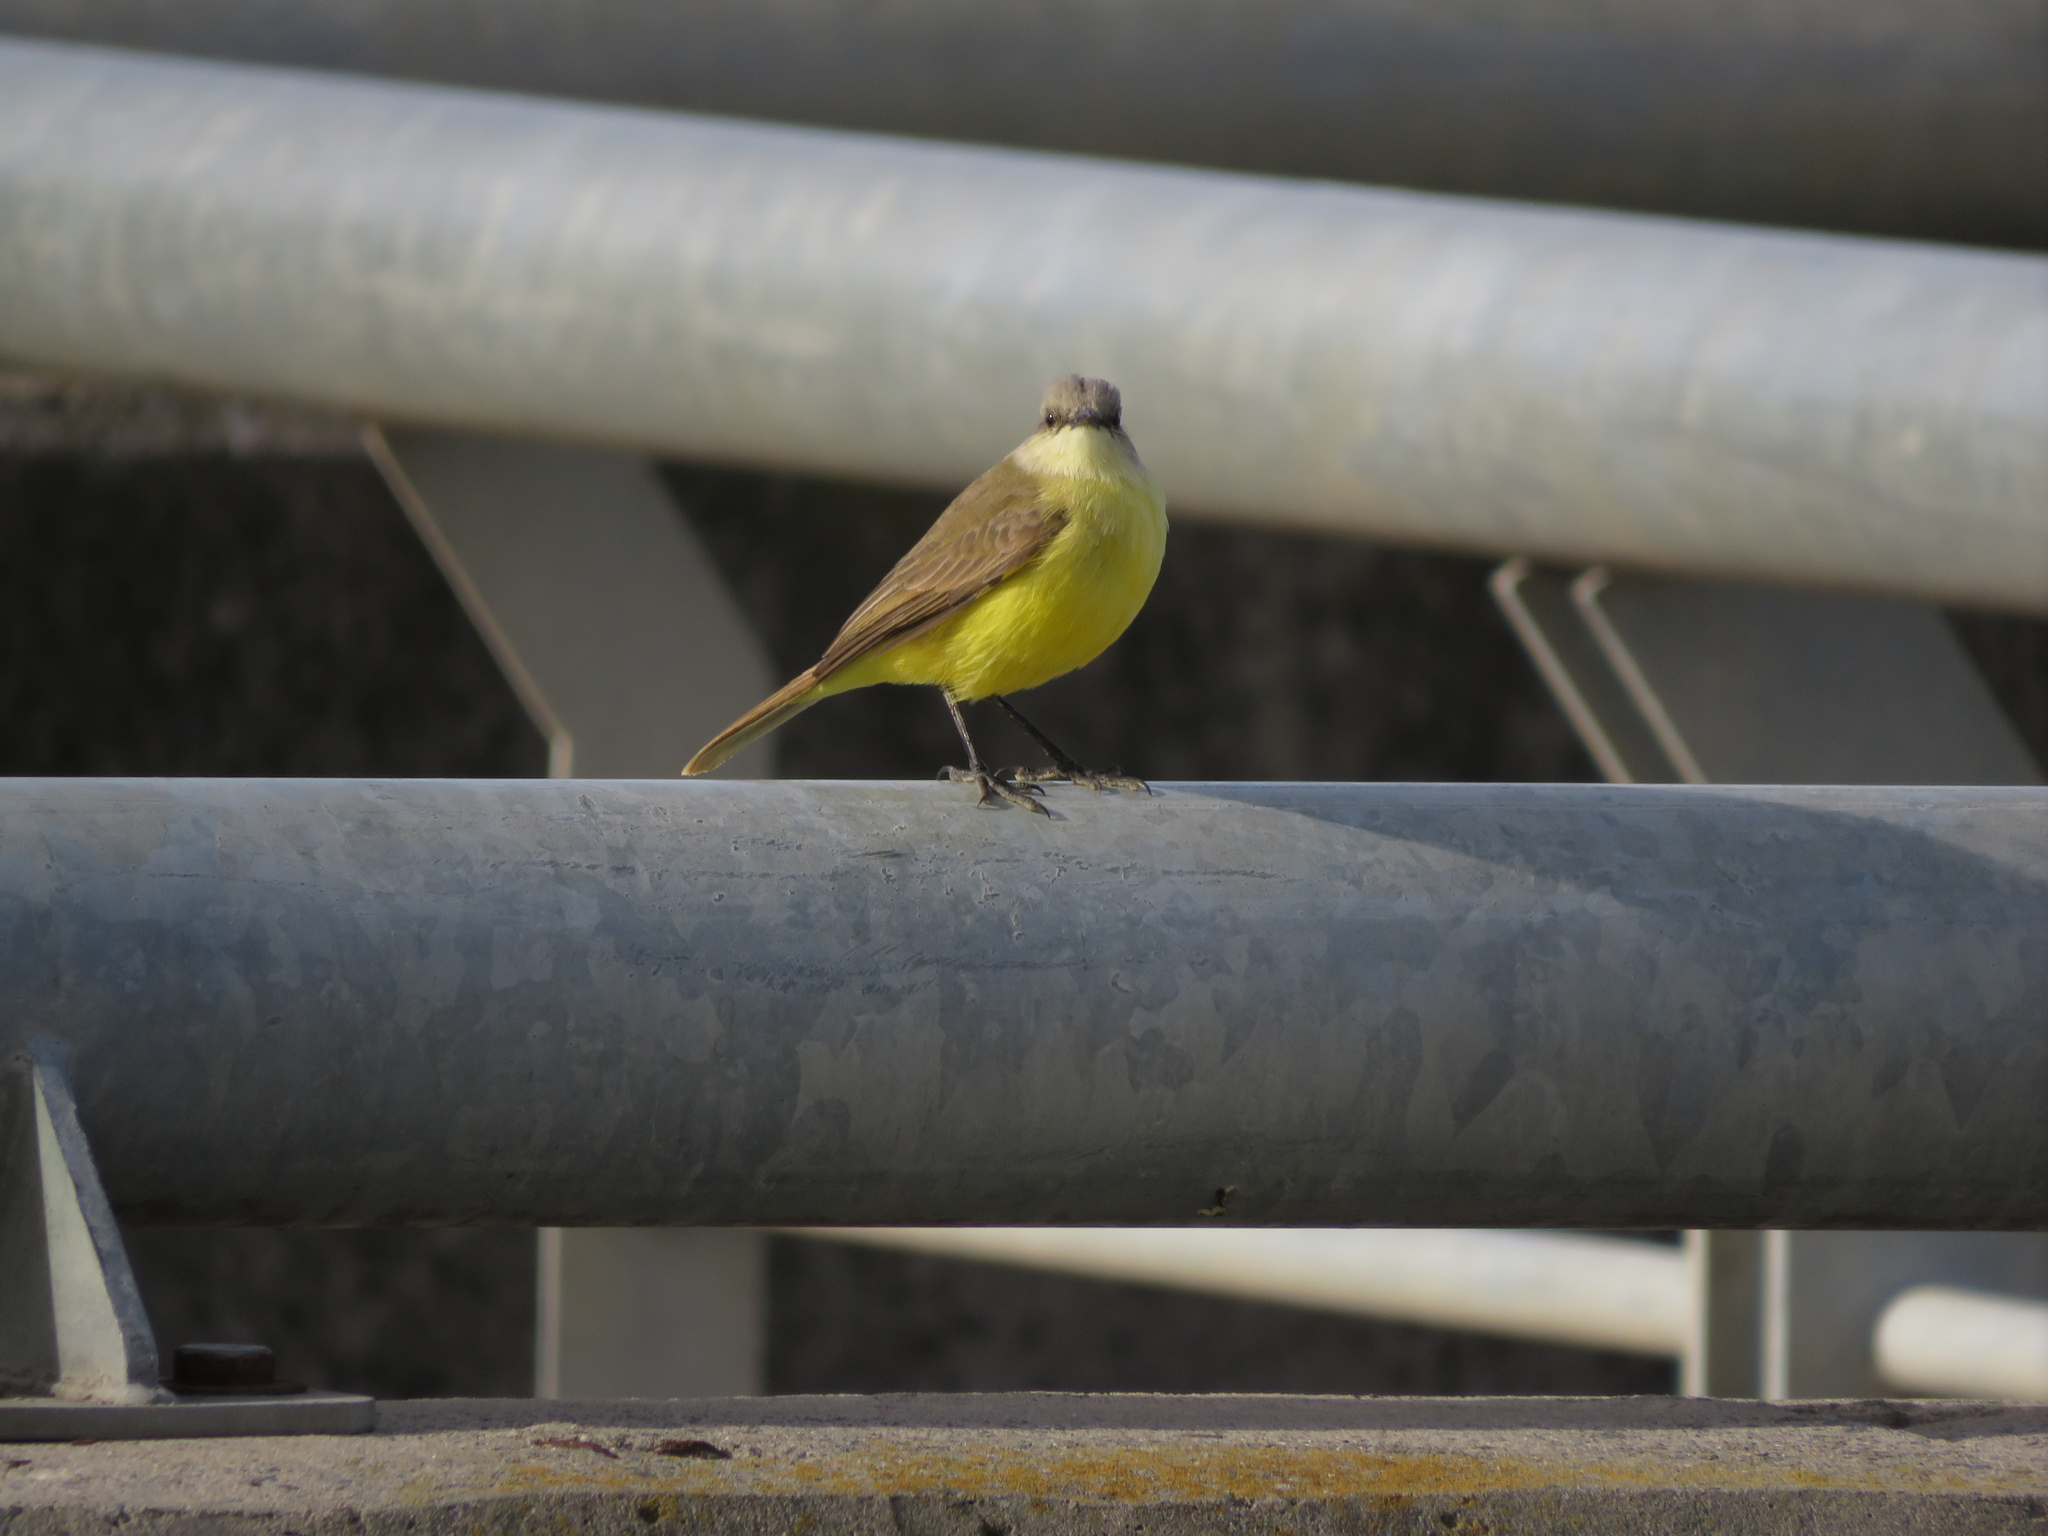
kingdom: Animalia
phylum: Chordata
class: Aves
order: Passeriformes
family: Tyrannidae
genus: Machetornis
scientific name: Machetornis rixosa
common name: Cattle tyrant
